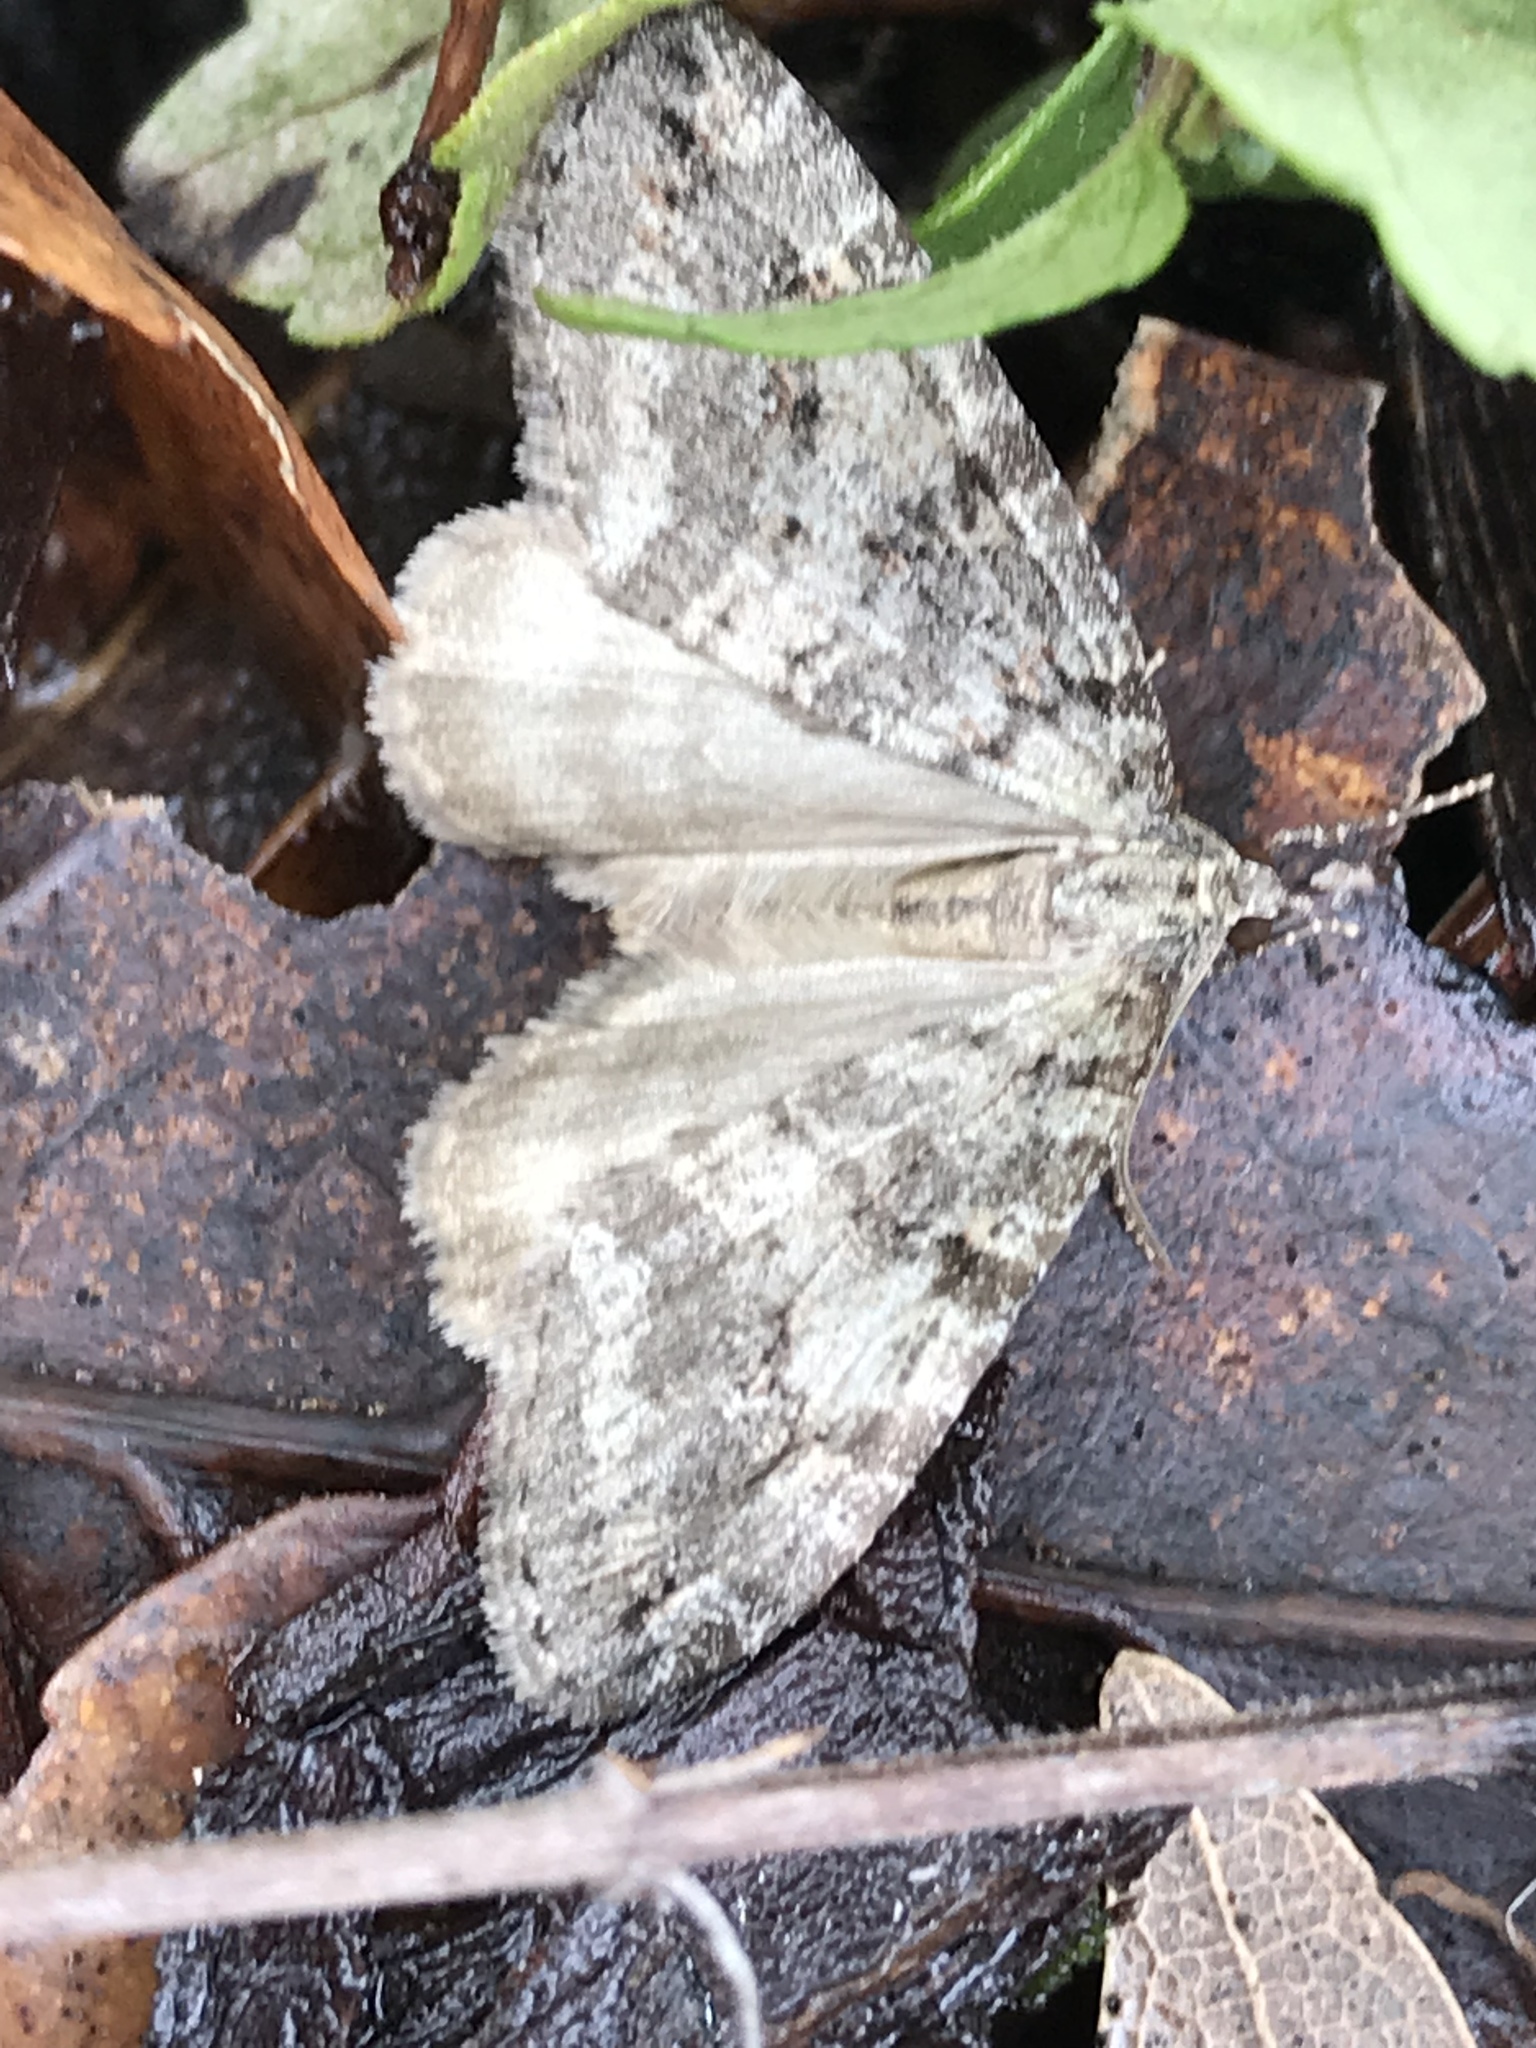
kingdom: Animalia
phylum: Arthropoda
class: Insecta
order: Lepidoptera
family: Geometridae
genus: Hydriomena
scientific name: Hydriomena nubilofasciata
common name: Oak winter highflier moth
